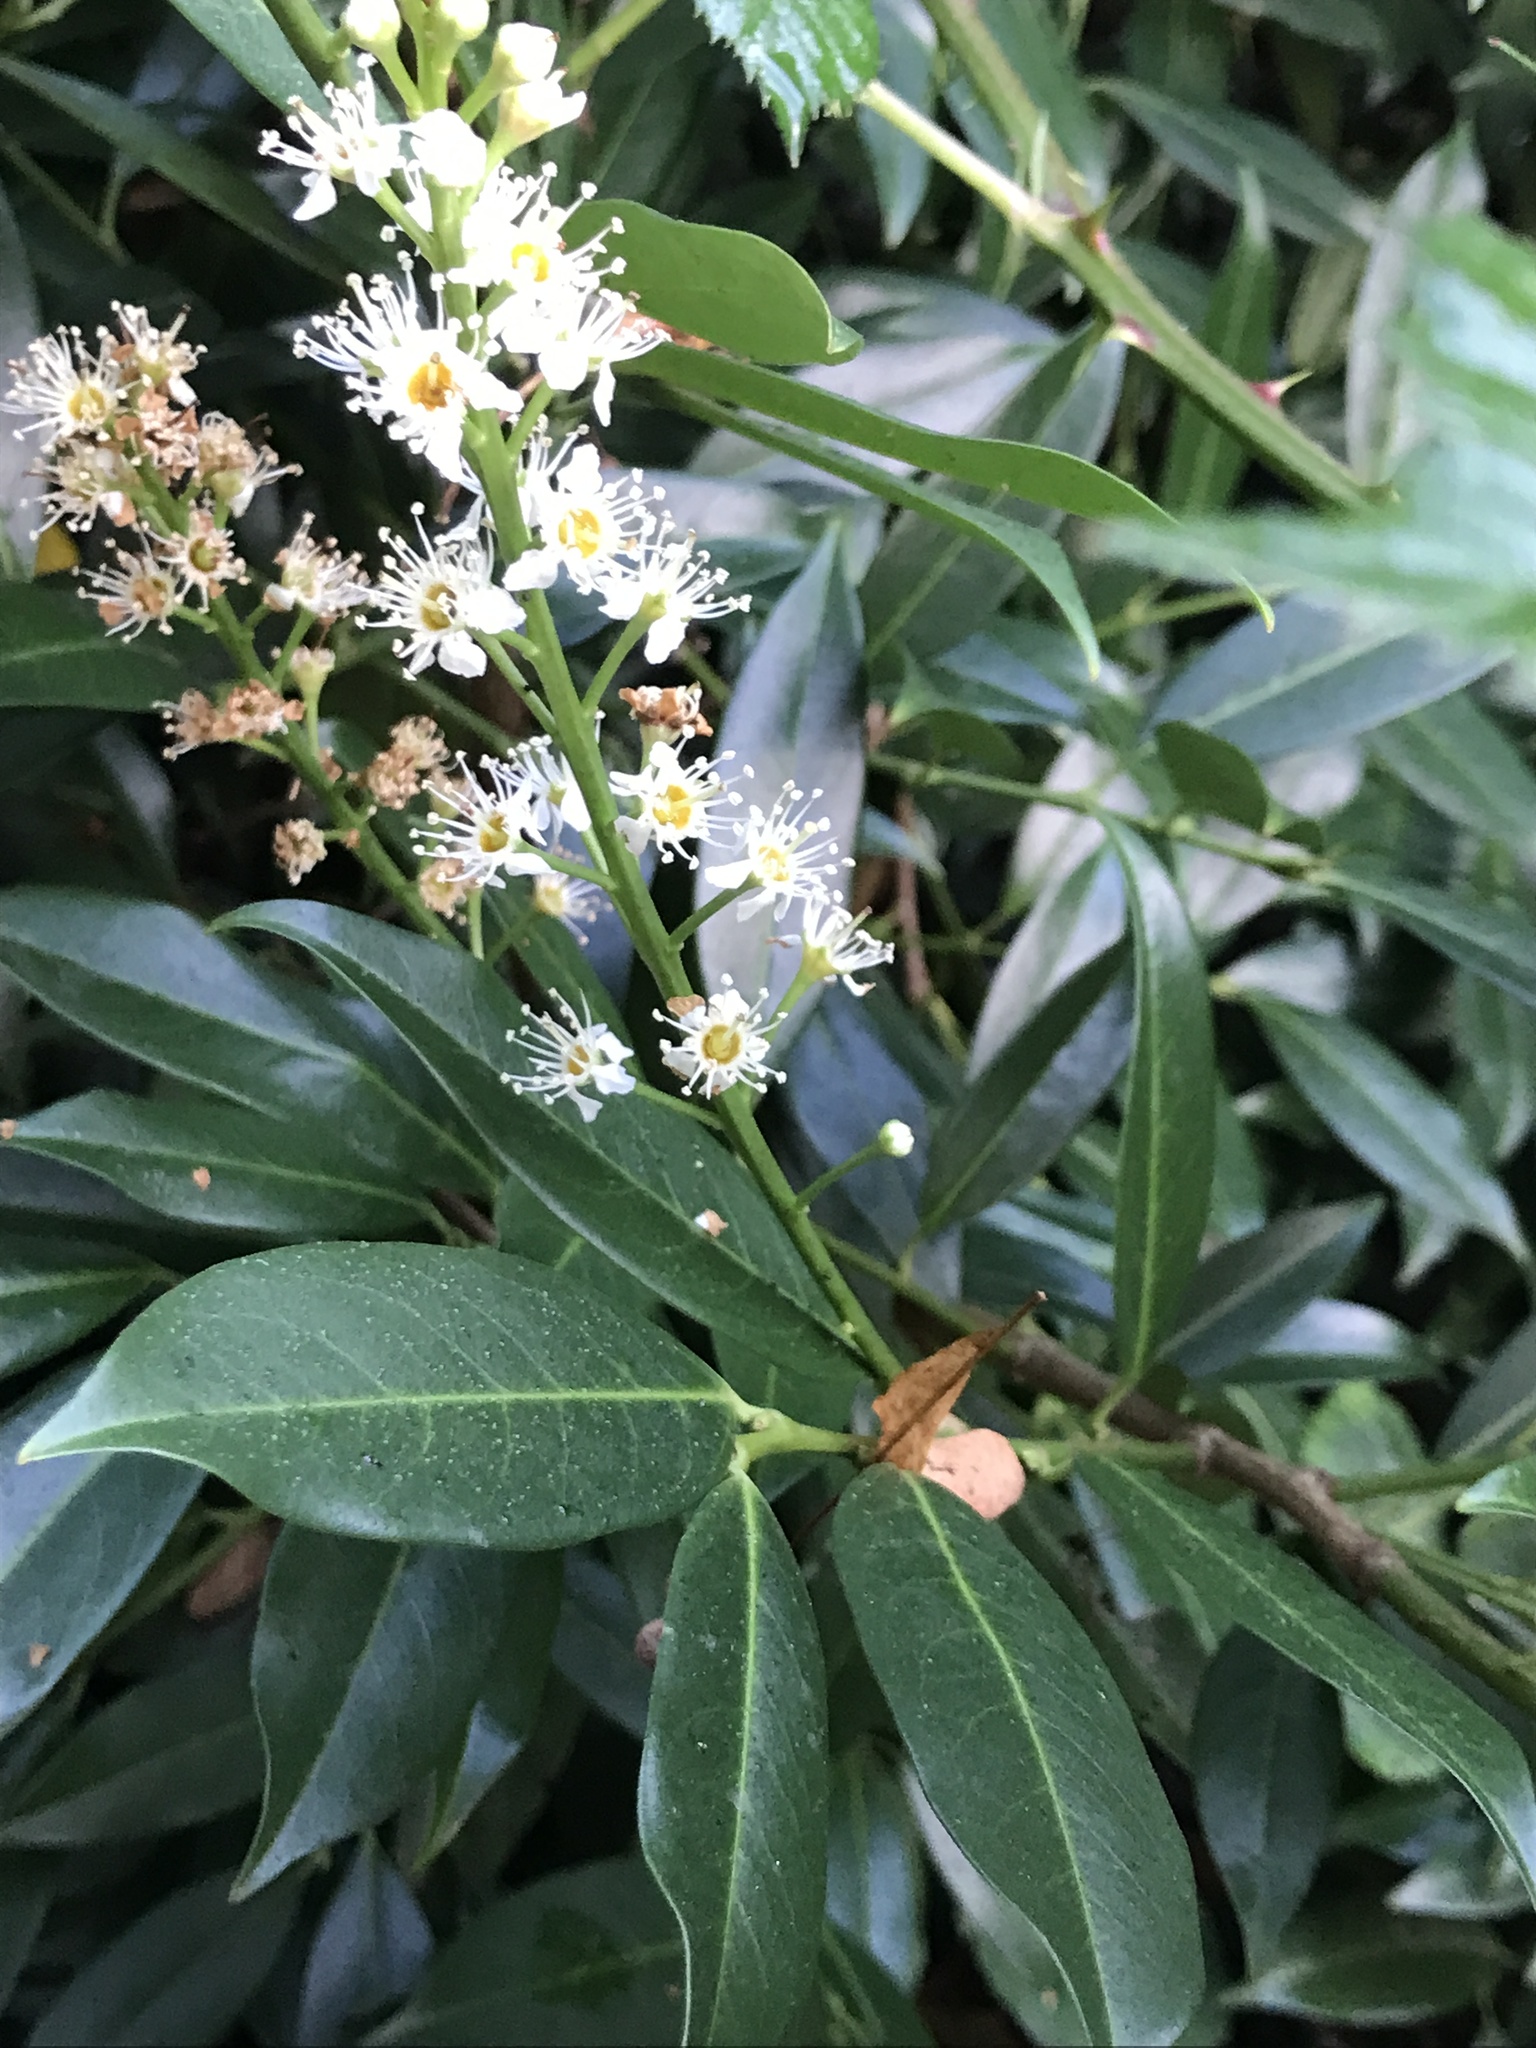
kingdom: Plantae
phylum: Tracheophyta
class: Magnoliopsida
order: Rosales
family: Rosaceae
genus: Prunus
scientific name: Prunus laurocerasus
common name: Cherry laurel
